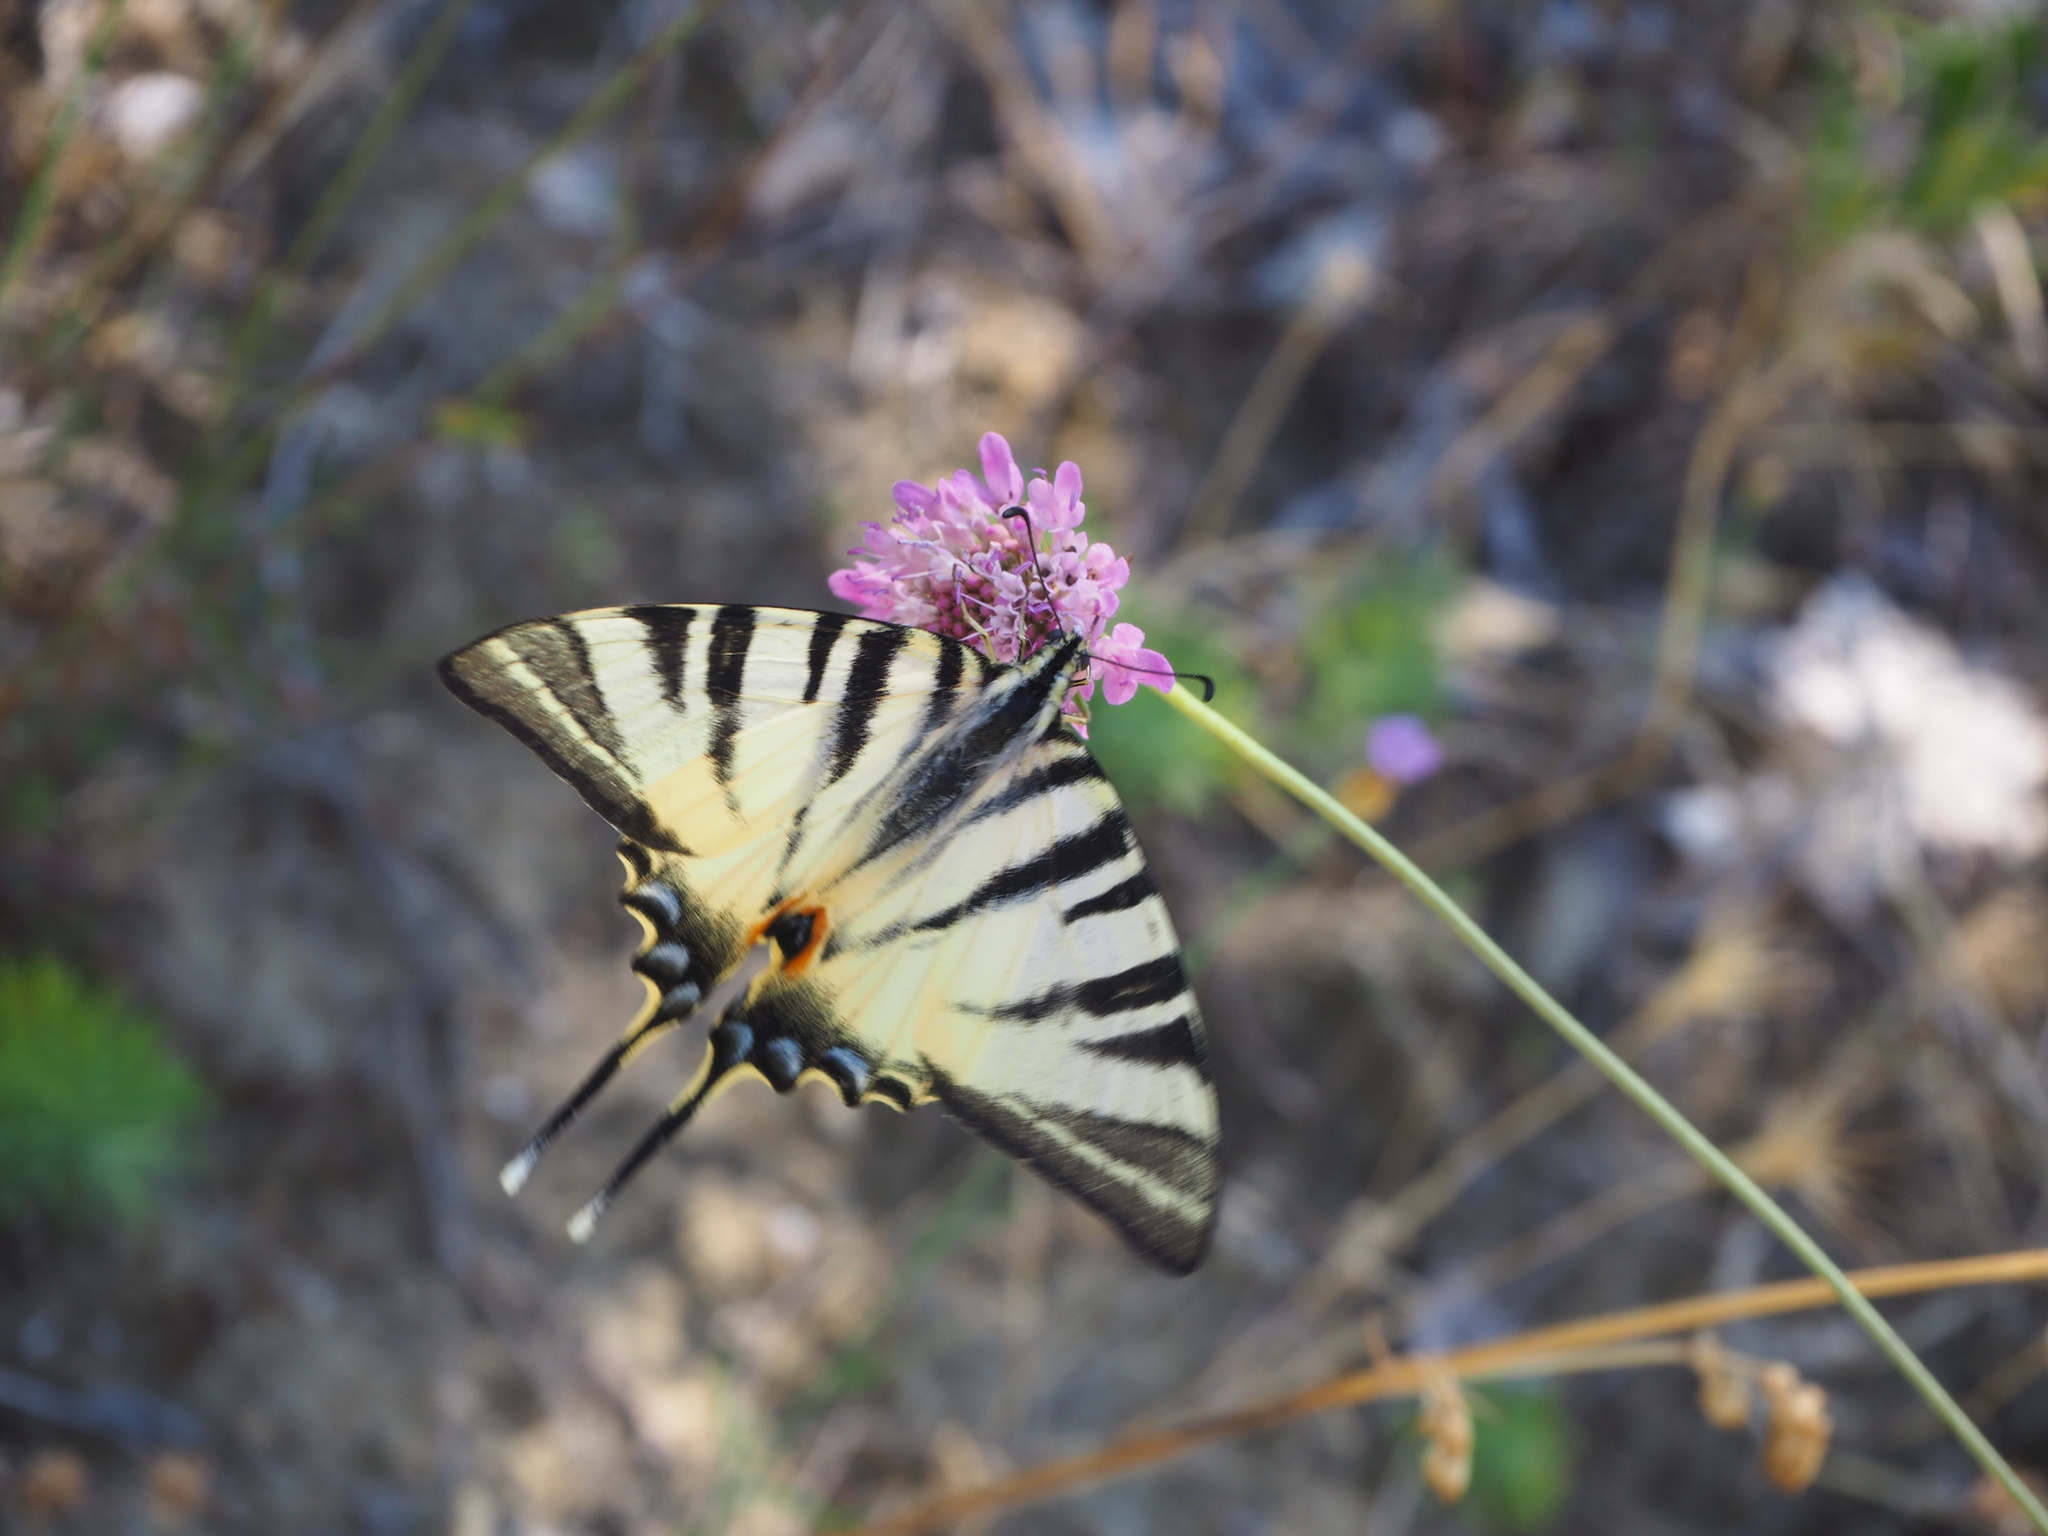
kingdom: Animalia
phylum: Arthropoda
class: Insecta
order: Lepidoptera
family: Papilionidae
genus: Iphiclides
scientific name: Iphiclides podalirius
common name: Scarce swallowtail
